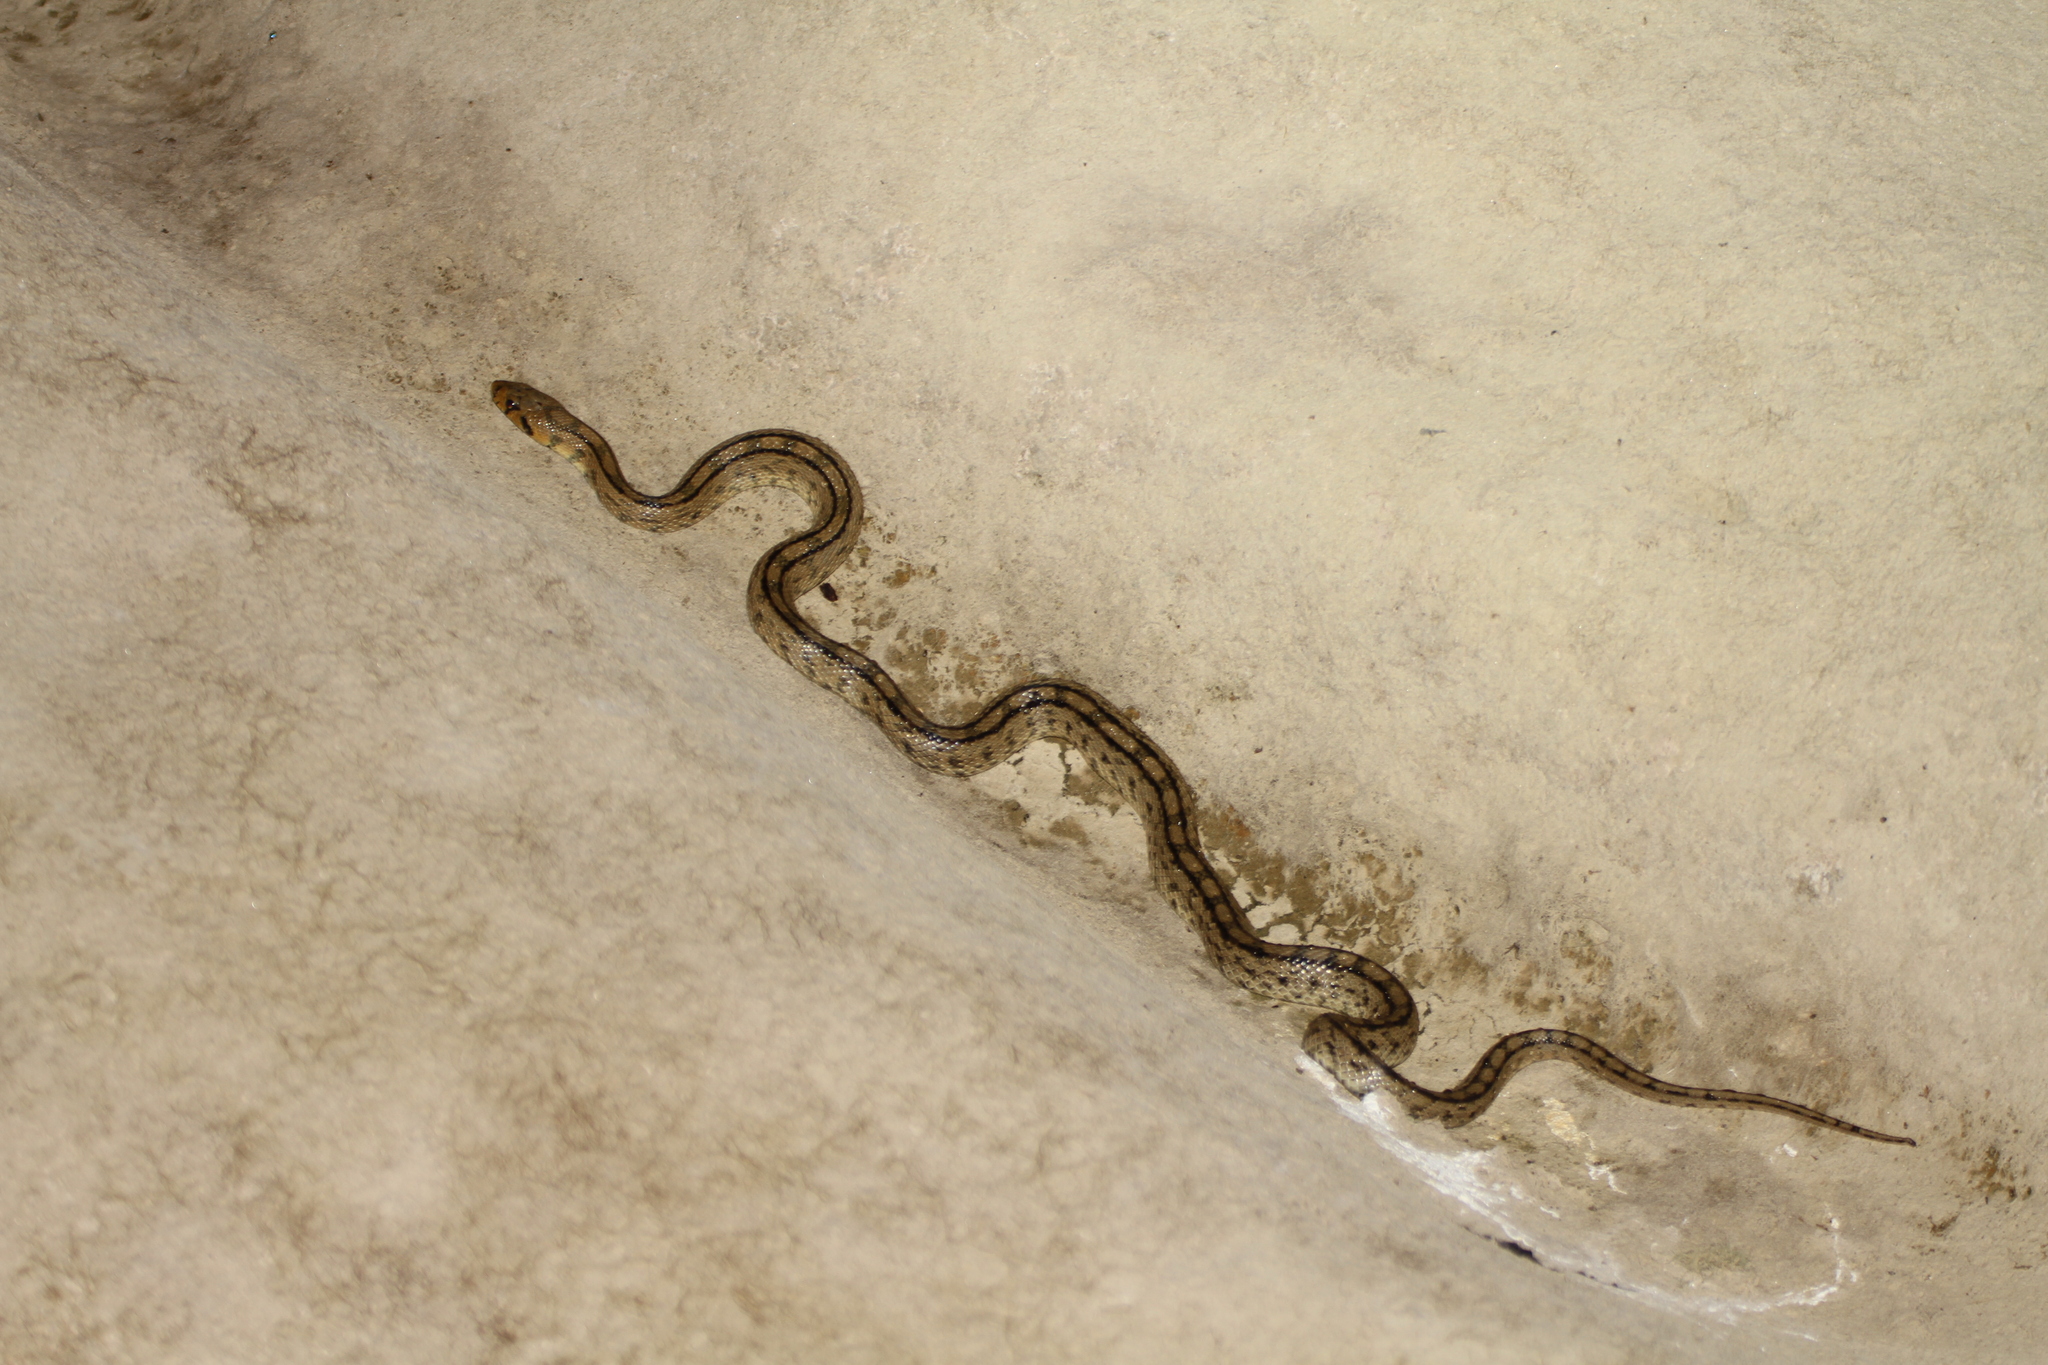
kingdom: Animalia
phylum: Chordata
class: Squamata
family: Colubridae
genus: Zamenis
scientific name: Zamenis scalaris
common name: Ladder snakes
